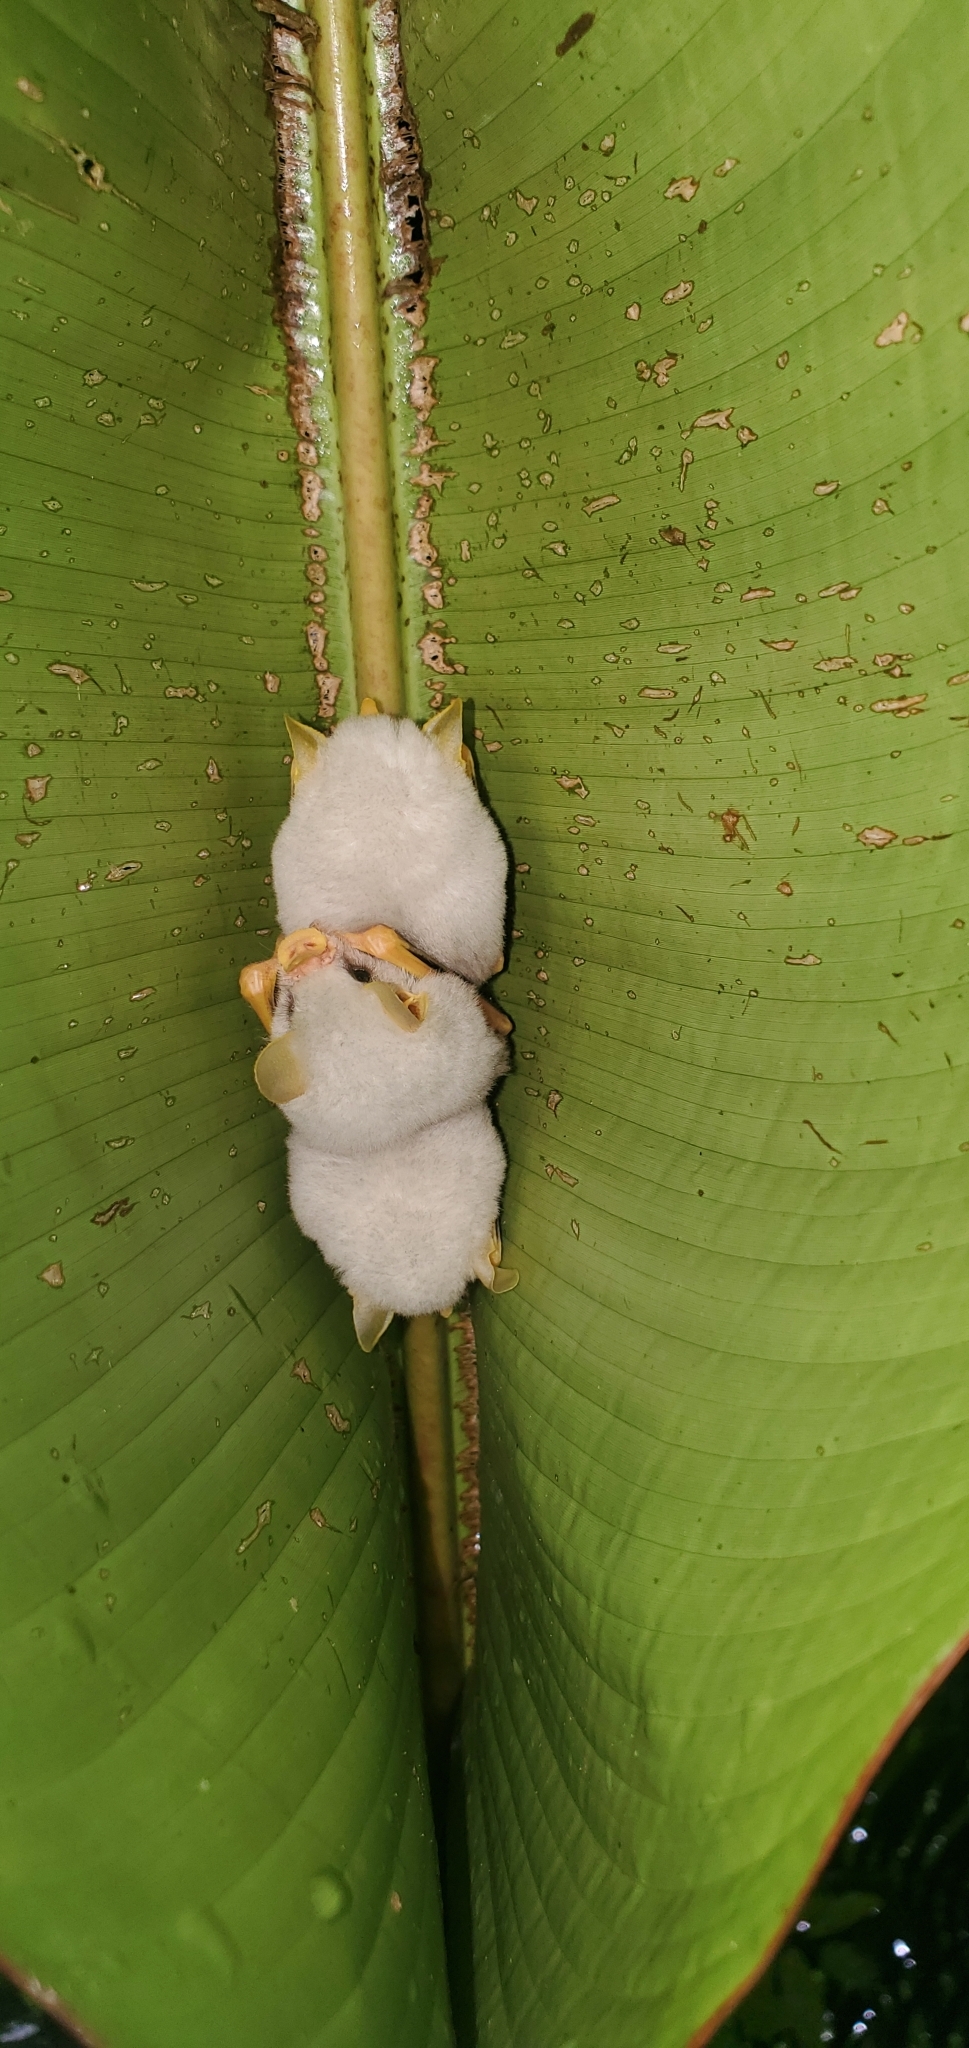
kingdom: Animalia
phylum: Chordata
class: Mammalia
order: Chiroptera
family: Phyllostomidae
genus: Ectophylla
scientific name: Ectophylla alba
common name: Honduran white bat
